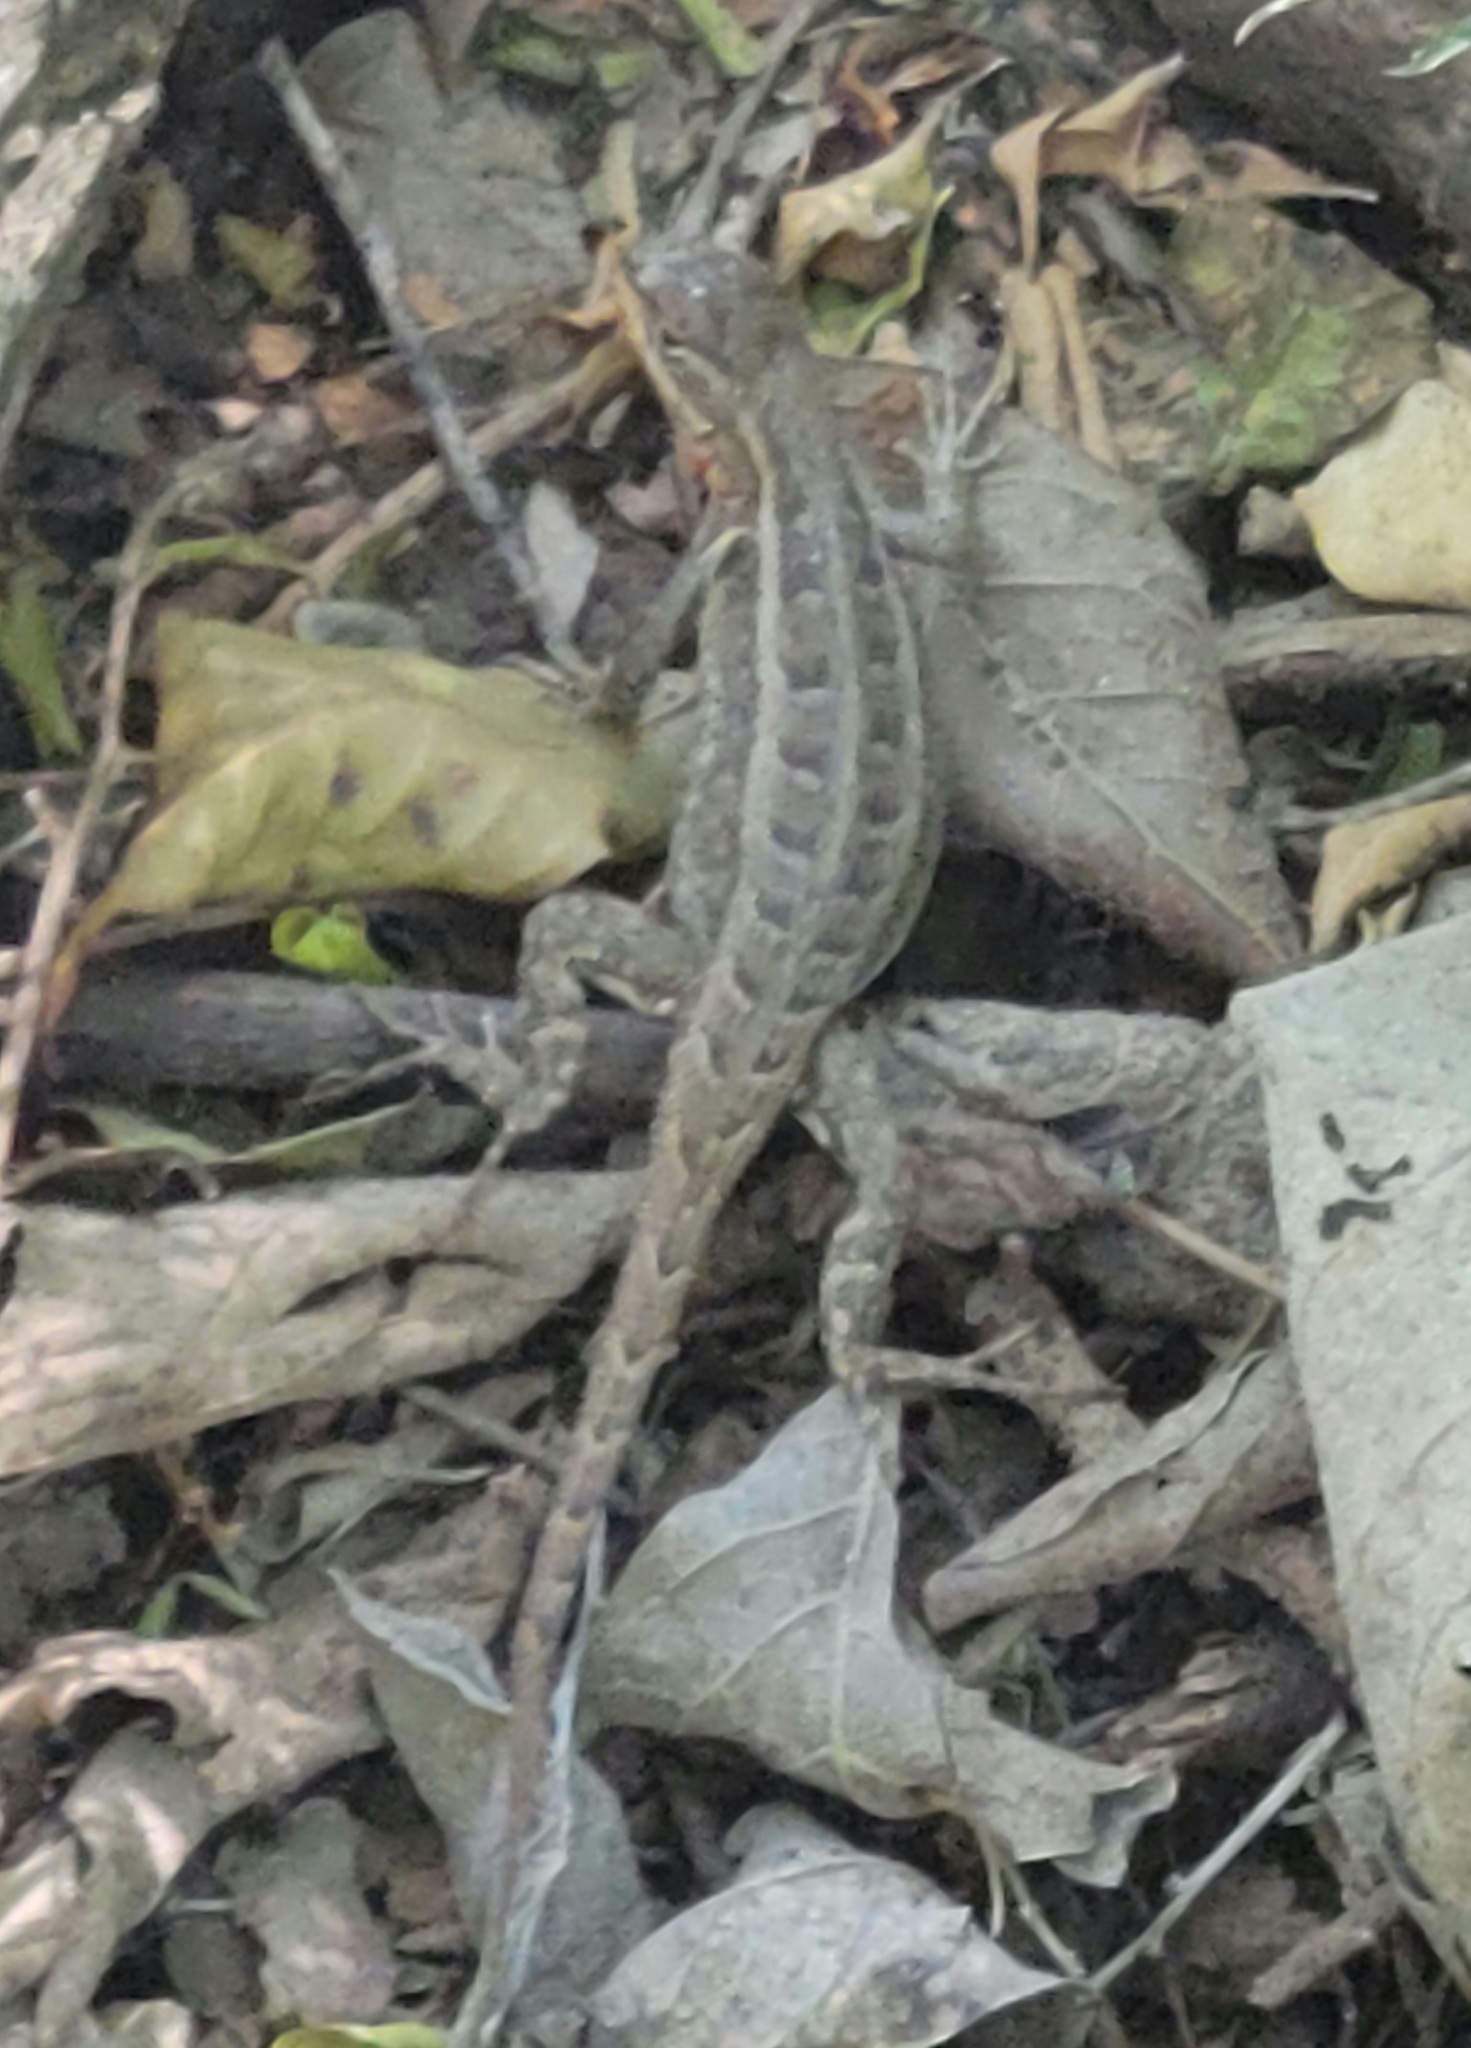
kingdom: Animalia
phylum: Chordata
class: Squamata
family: Phrynosomatidae
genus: Sceloporus
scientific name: Sceloporus variabilis
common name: Rosebelly lizard
